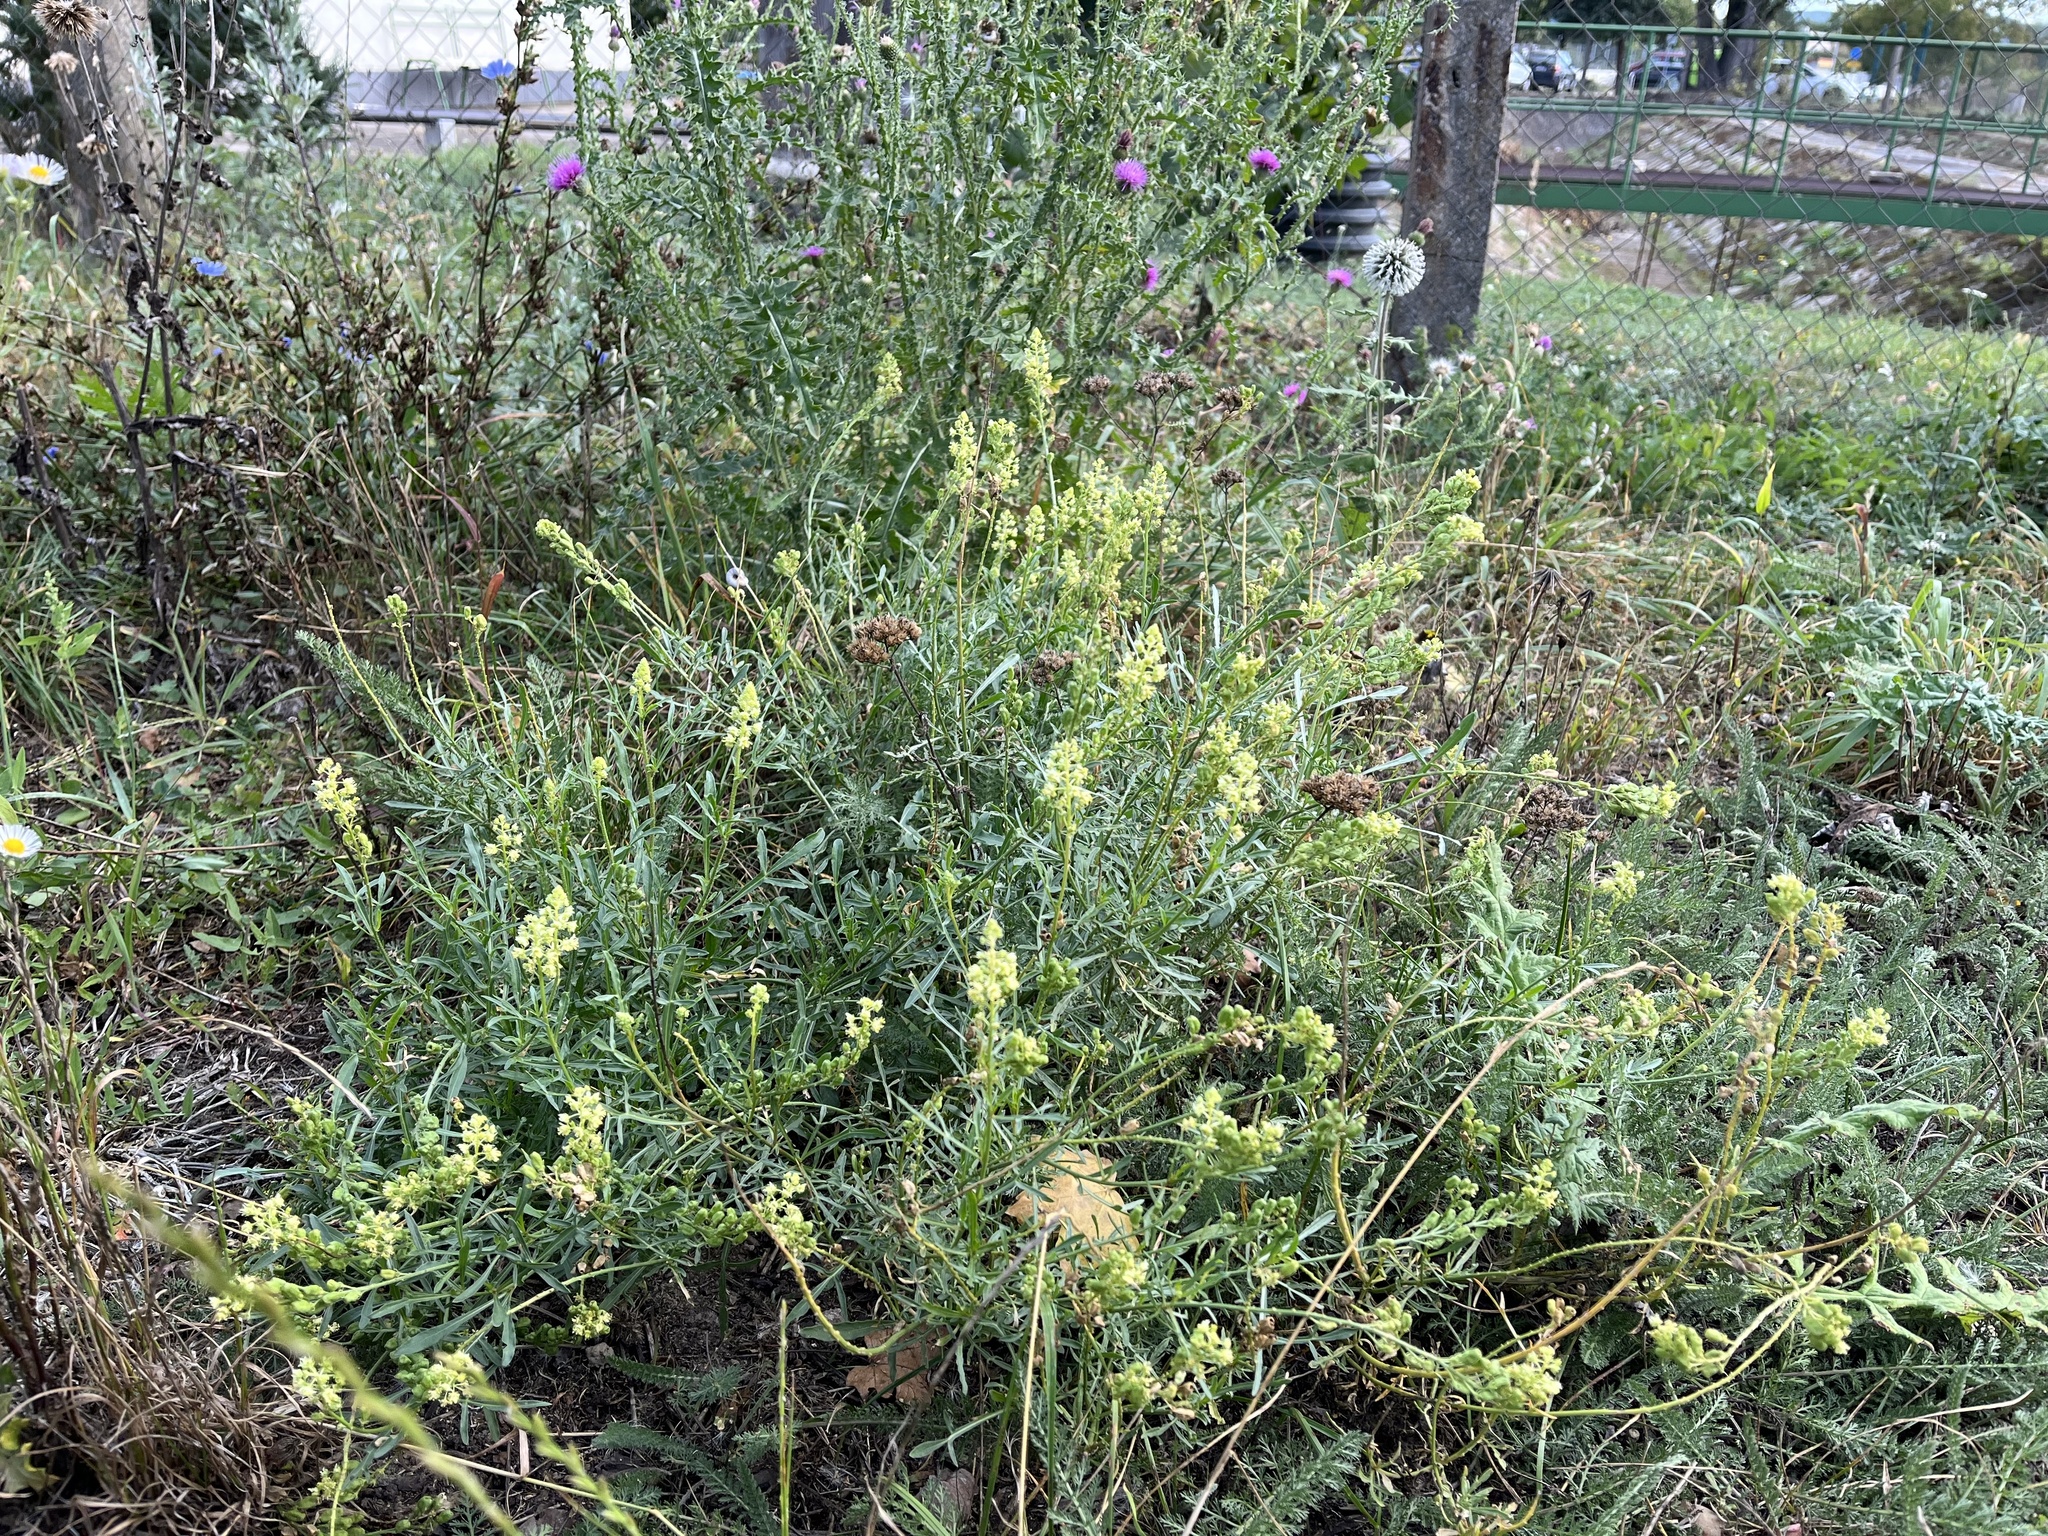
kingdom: Plantae
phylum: Tracheophyta
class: Magnoliopsida
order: Brassicales
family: Resedaceae
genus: Reseda
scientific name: Reseda lutea
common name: Wild mignonette
